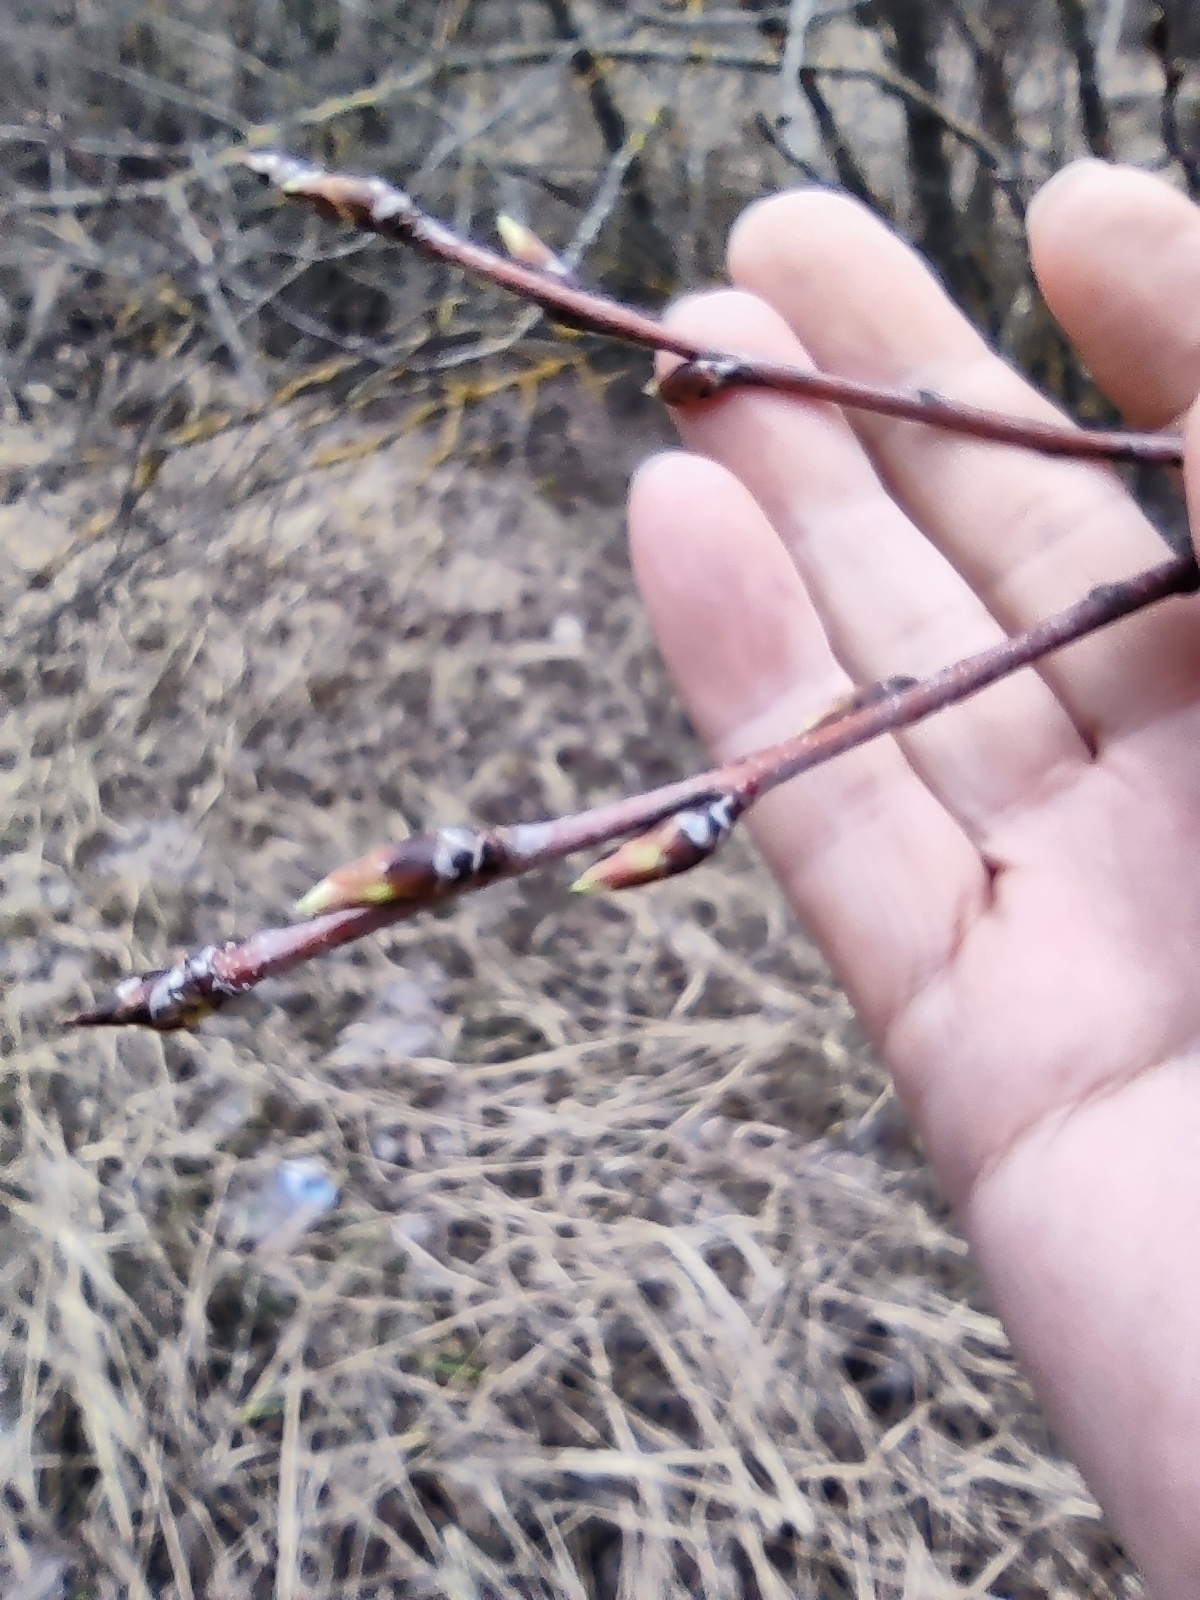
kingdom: Plantae
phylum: Tracheophyta
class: Magnoliopsida
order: Rosales
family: Rosaceae
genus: Prunus
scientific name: Prunus padus
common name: Bird cherry
